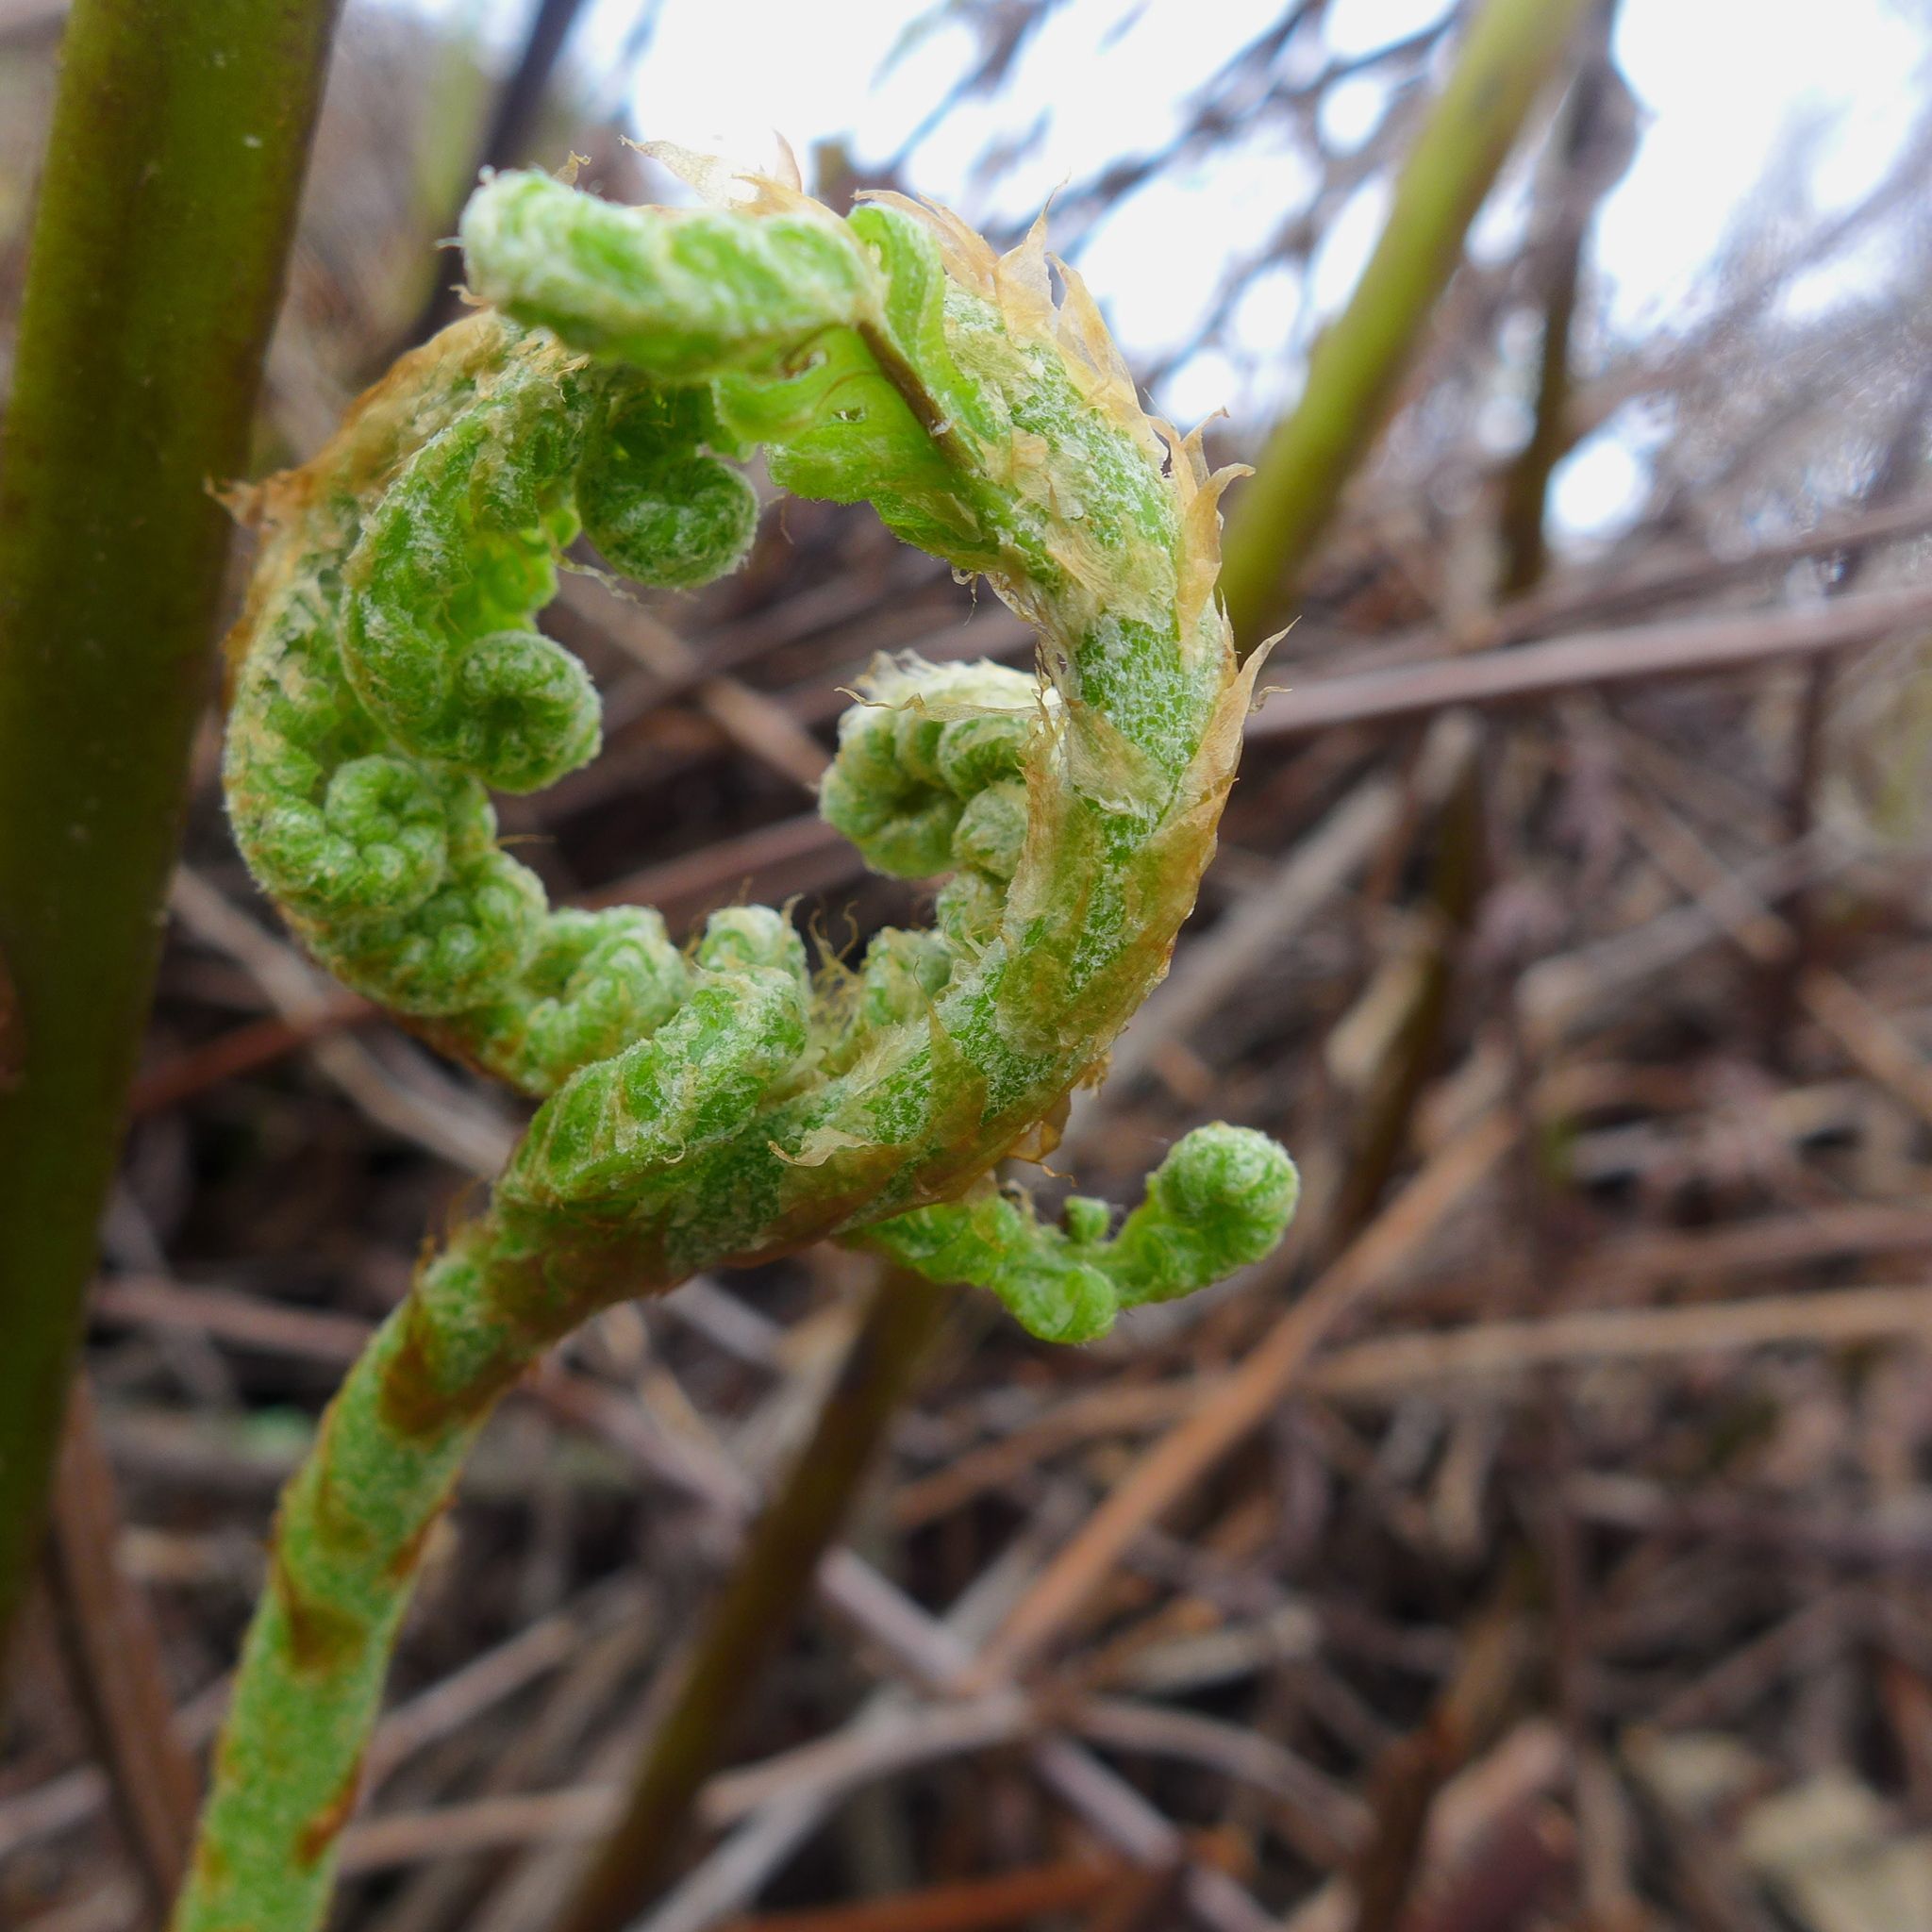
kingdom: Plantae
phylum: Tracheophyta
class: Polypodiopsida
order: Polypodiales
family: Blechnaceae
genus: Woodwardia
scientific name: Woodwardia fimbriata
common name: Giant chain fern
